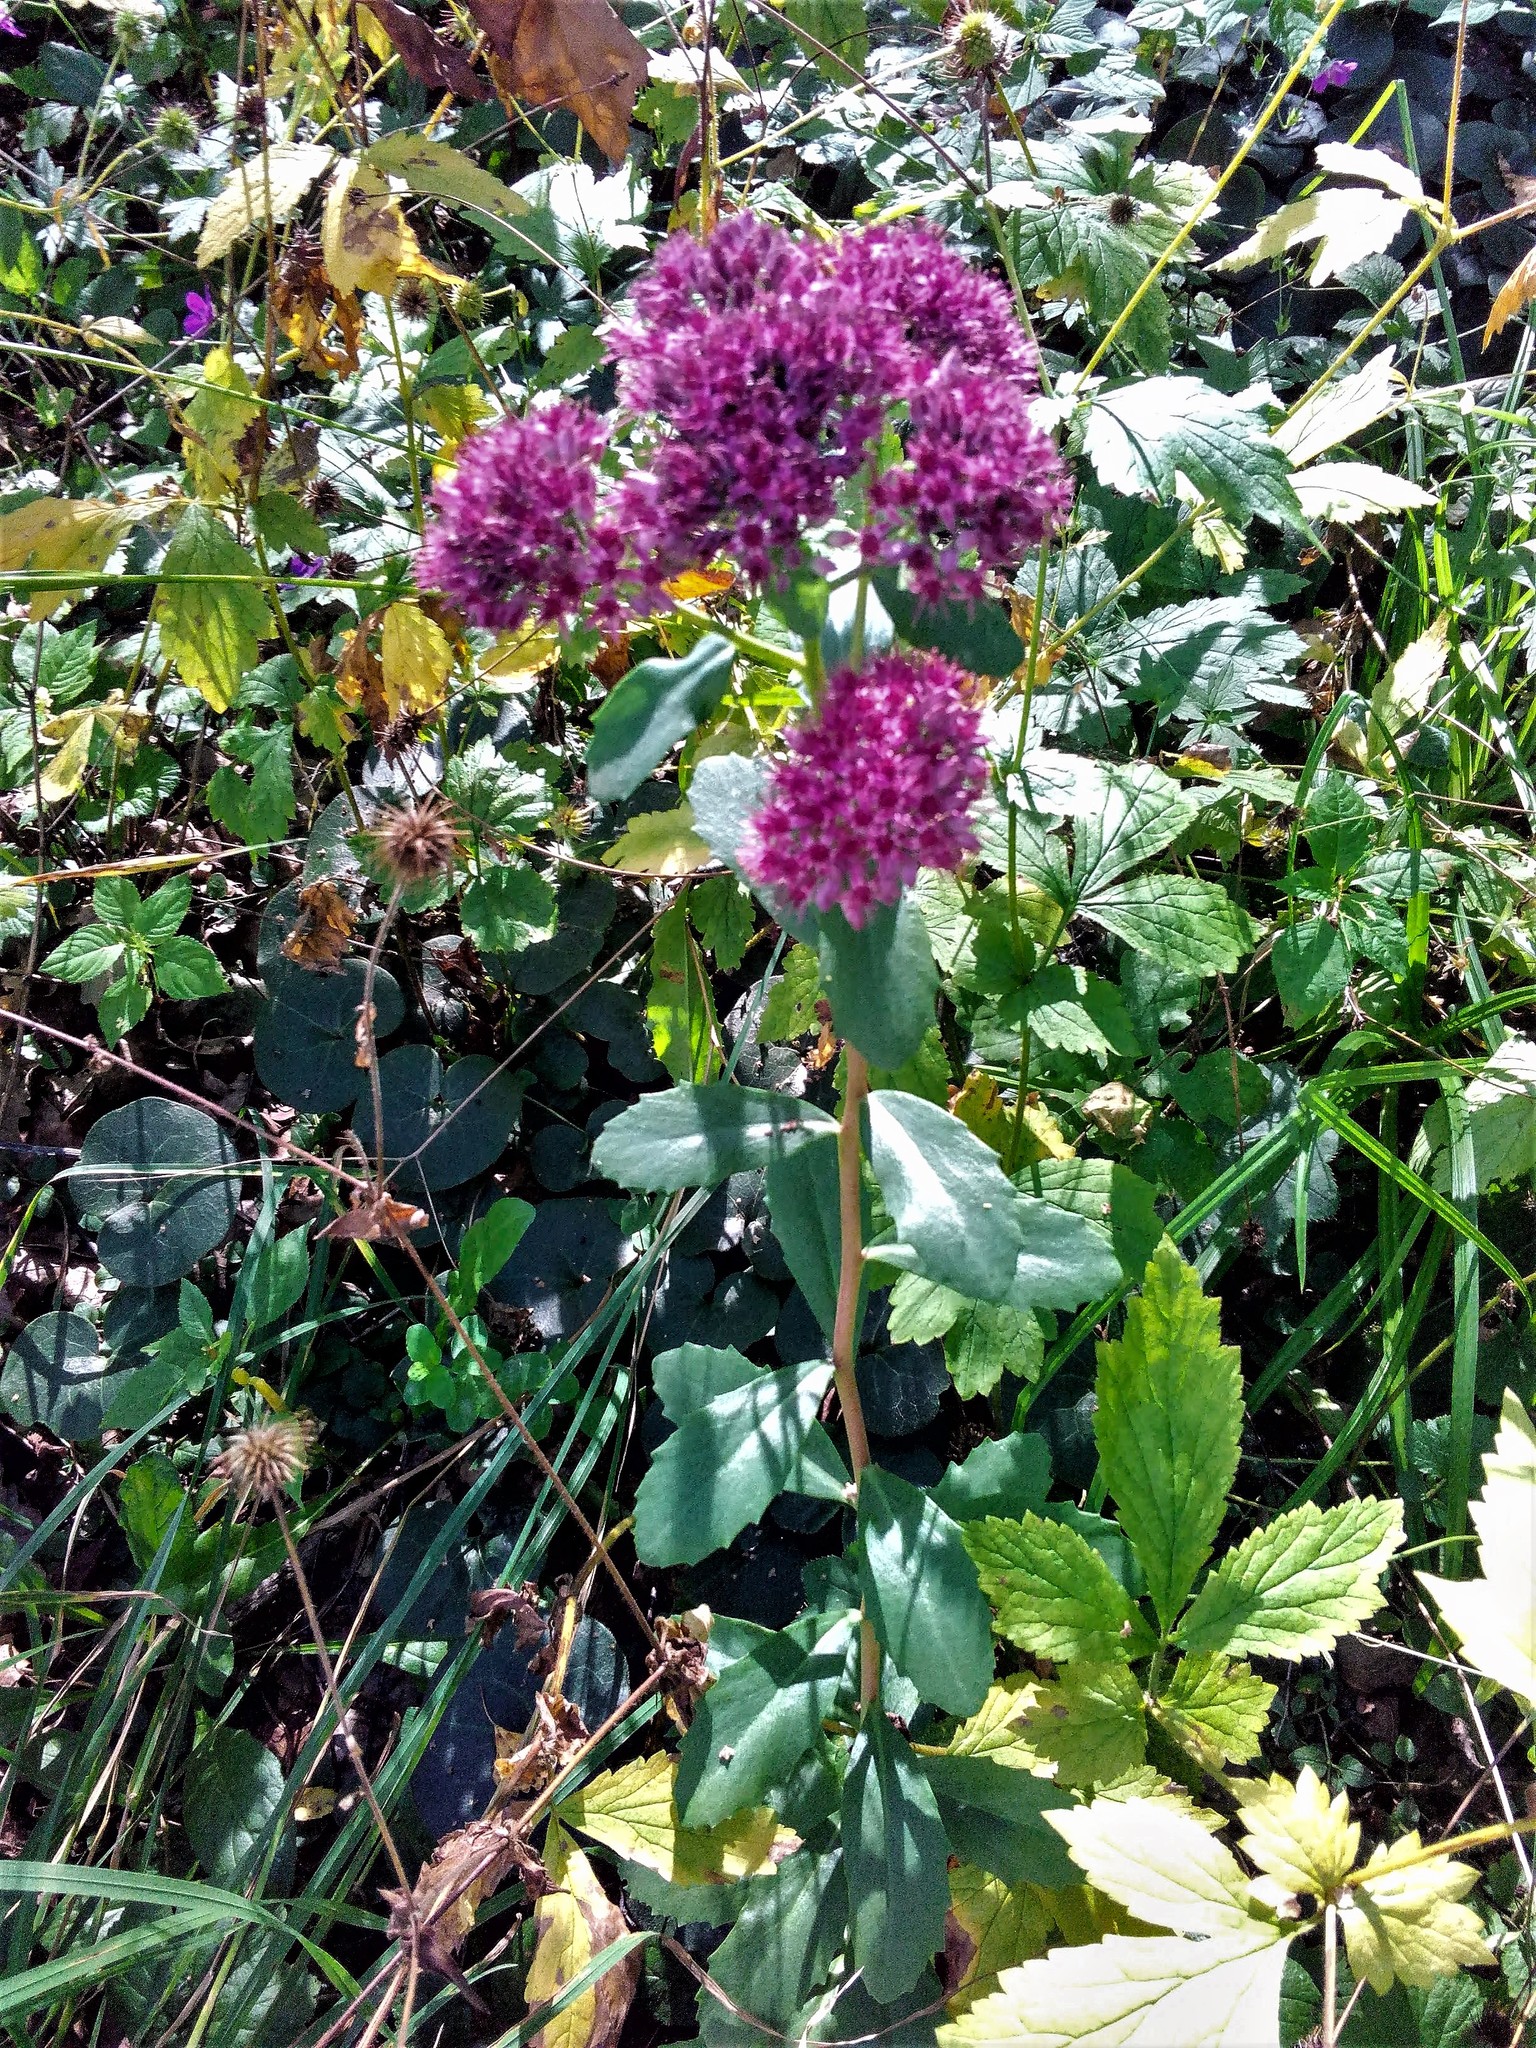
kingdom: Plantae
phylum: Tracheophyta
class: Magnoliopsida
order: Saxifragales
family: Crassulaceae
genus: Hylotelephium
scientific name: Hylotelephium telephium
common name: Live-forever
